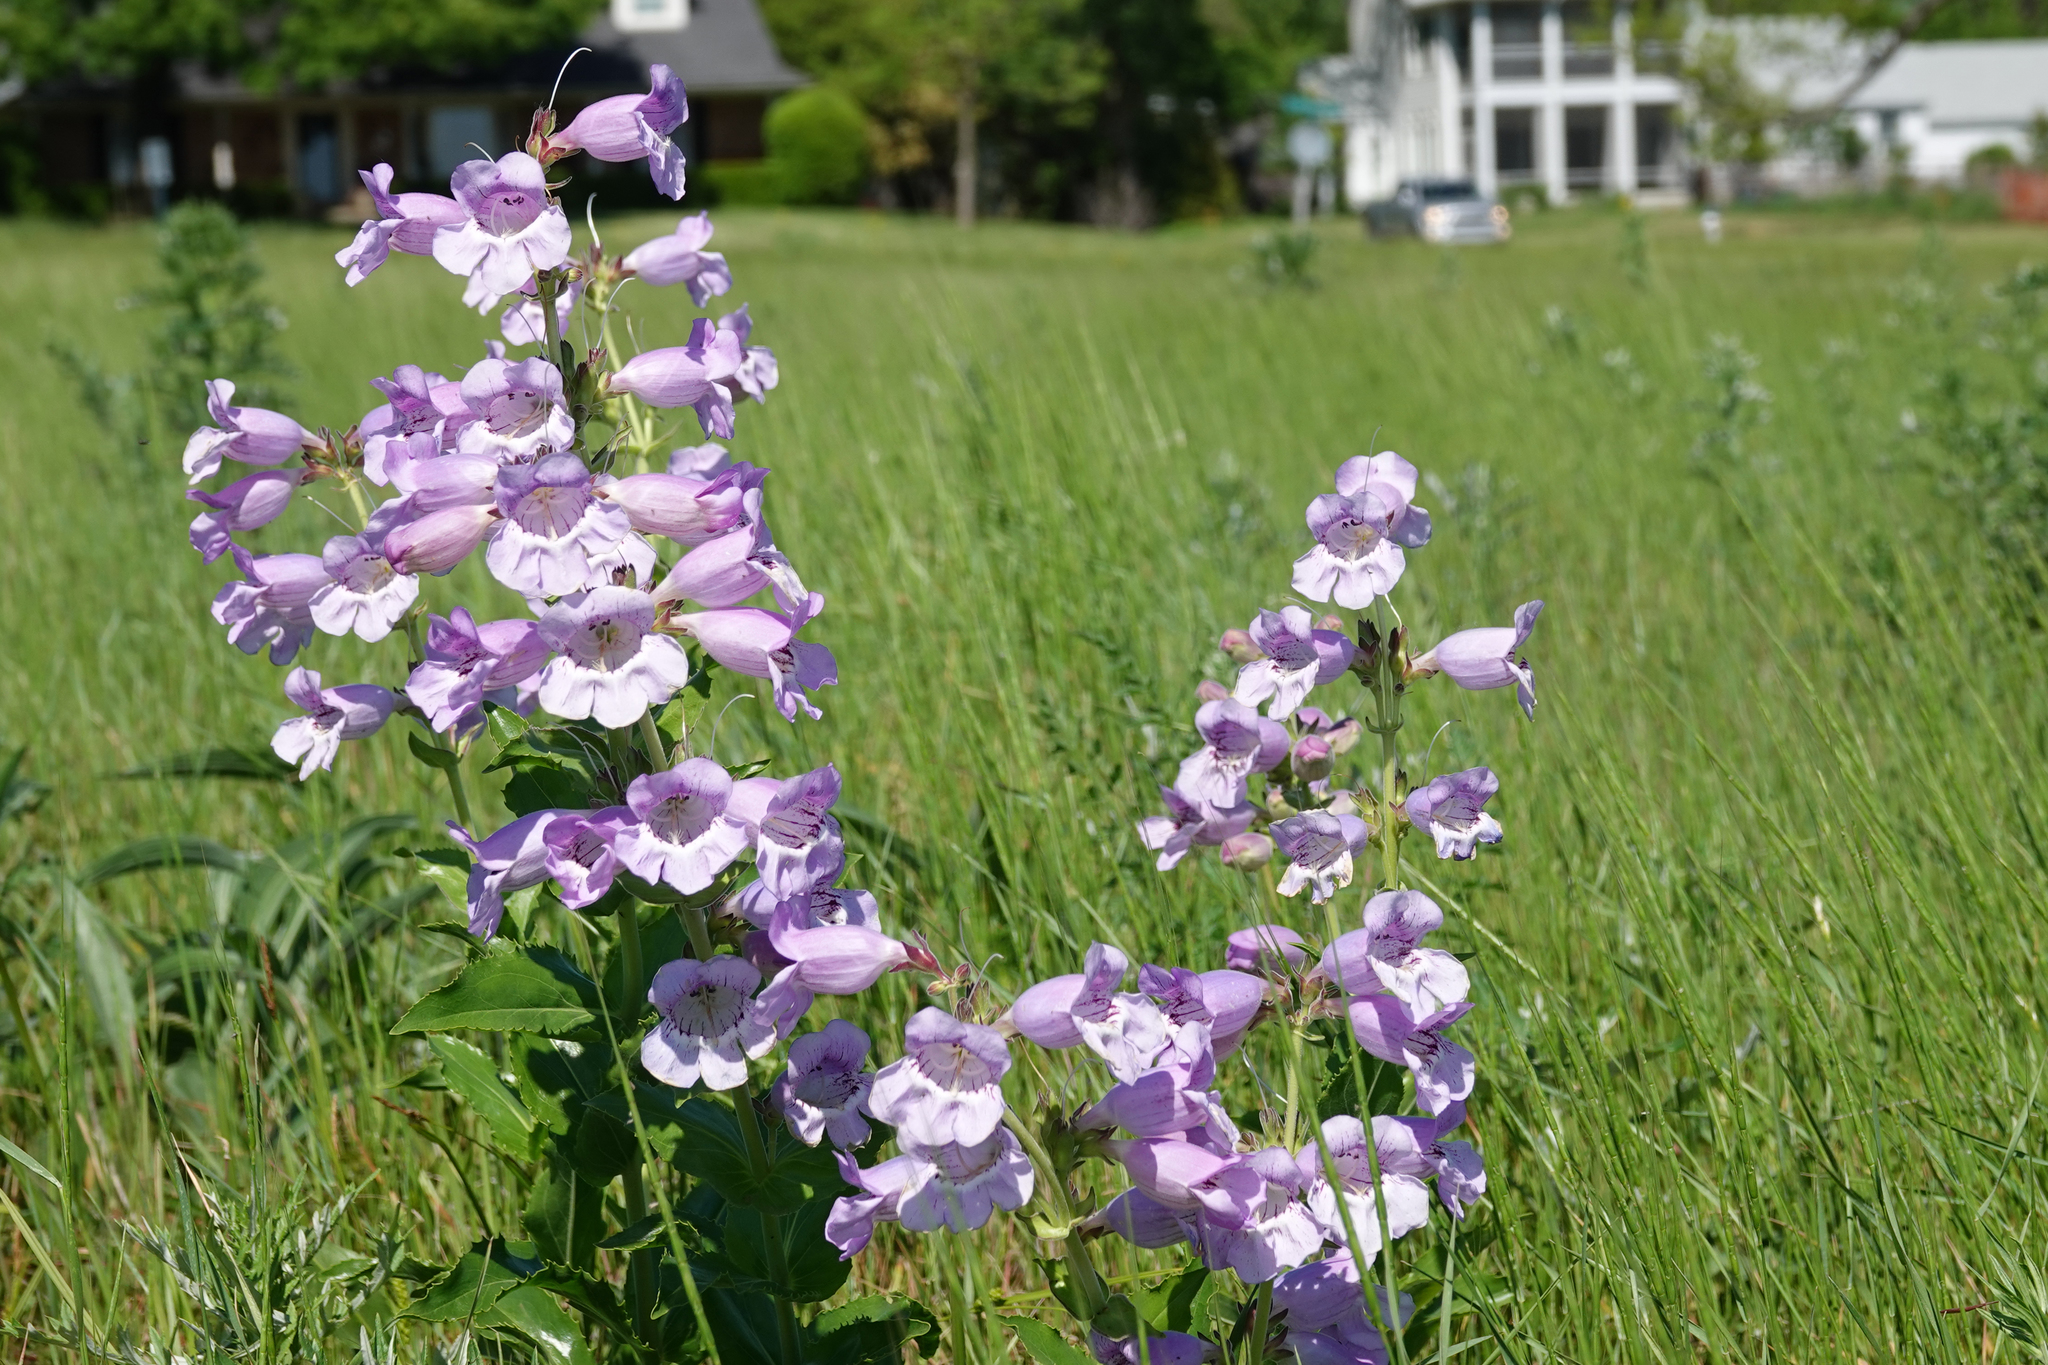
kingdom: Plantae
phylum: Tracheophyta
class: Magnoliopsida
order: Lamiales
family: Plantaginaceae
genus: Penstemon
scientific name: Penstemon cobaea
